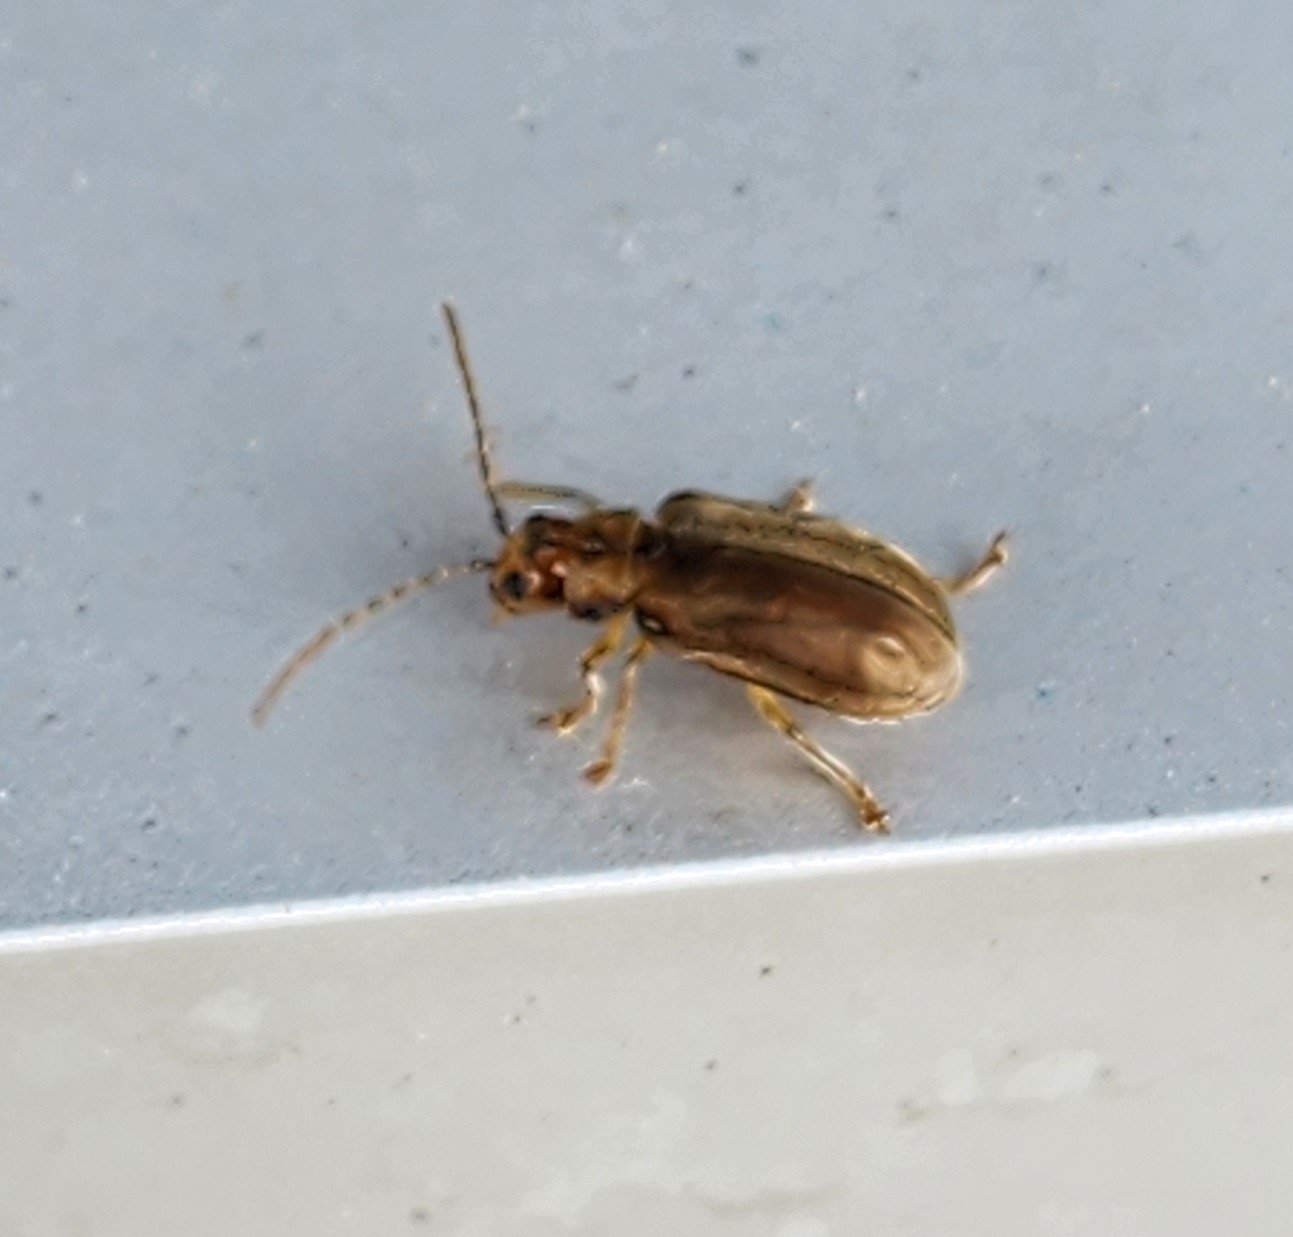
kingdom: Animalia
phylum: Arthropoda
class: Insecta
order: Coleoptera
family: Chrysomelidae
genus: Pyrrhalta
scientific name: Pyrrhalta viburni
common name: Guelder-rose leaf beetle
